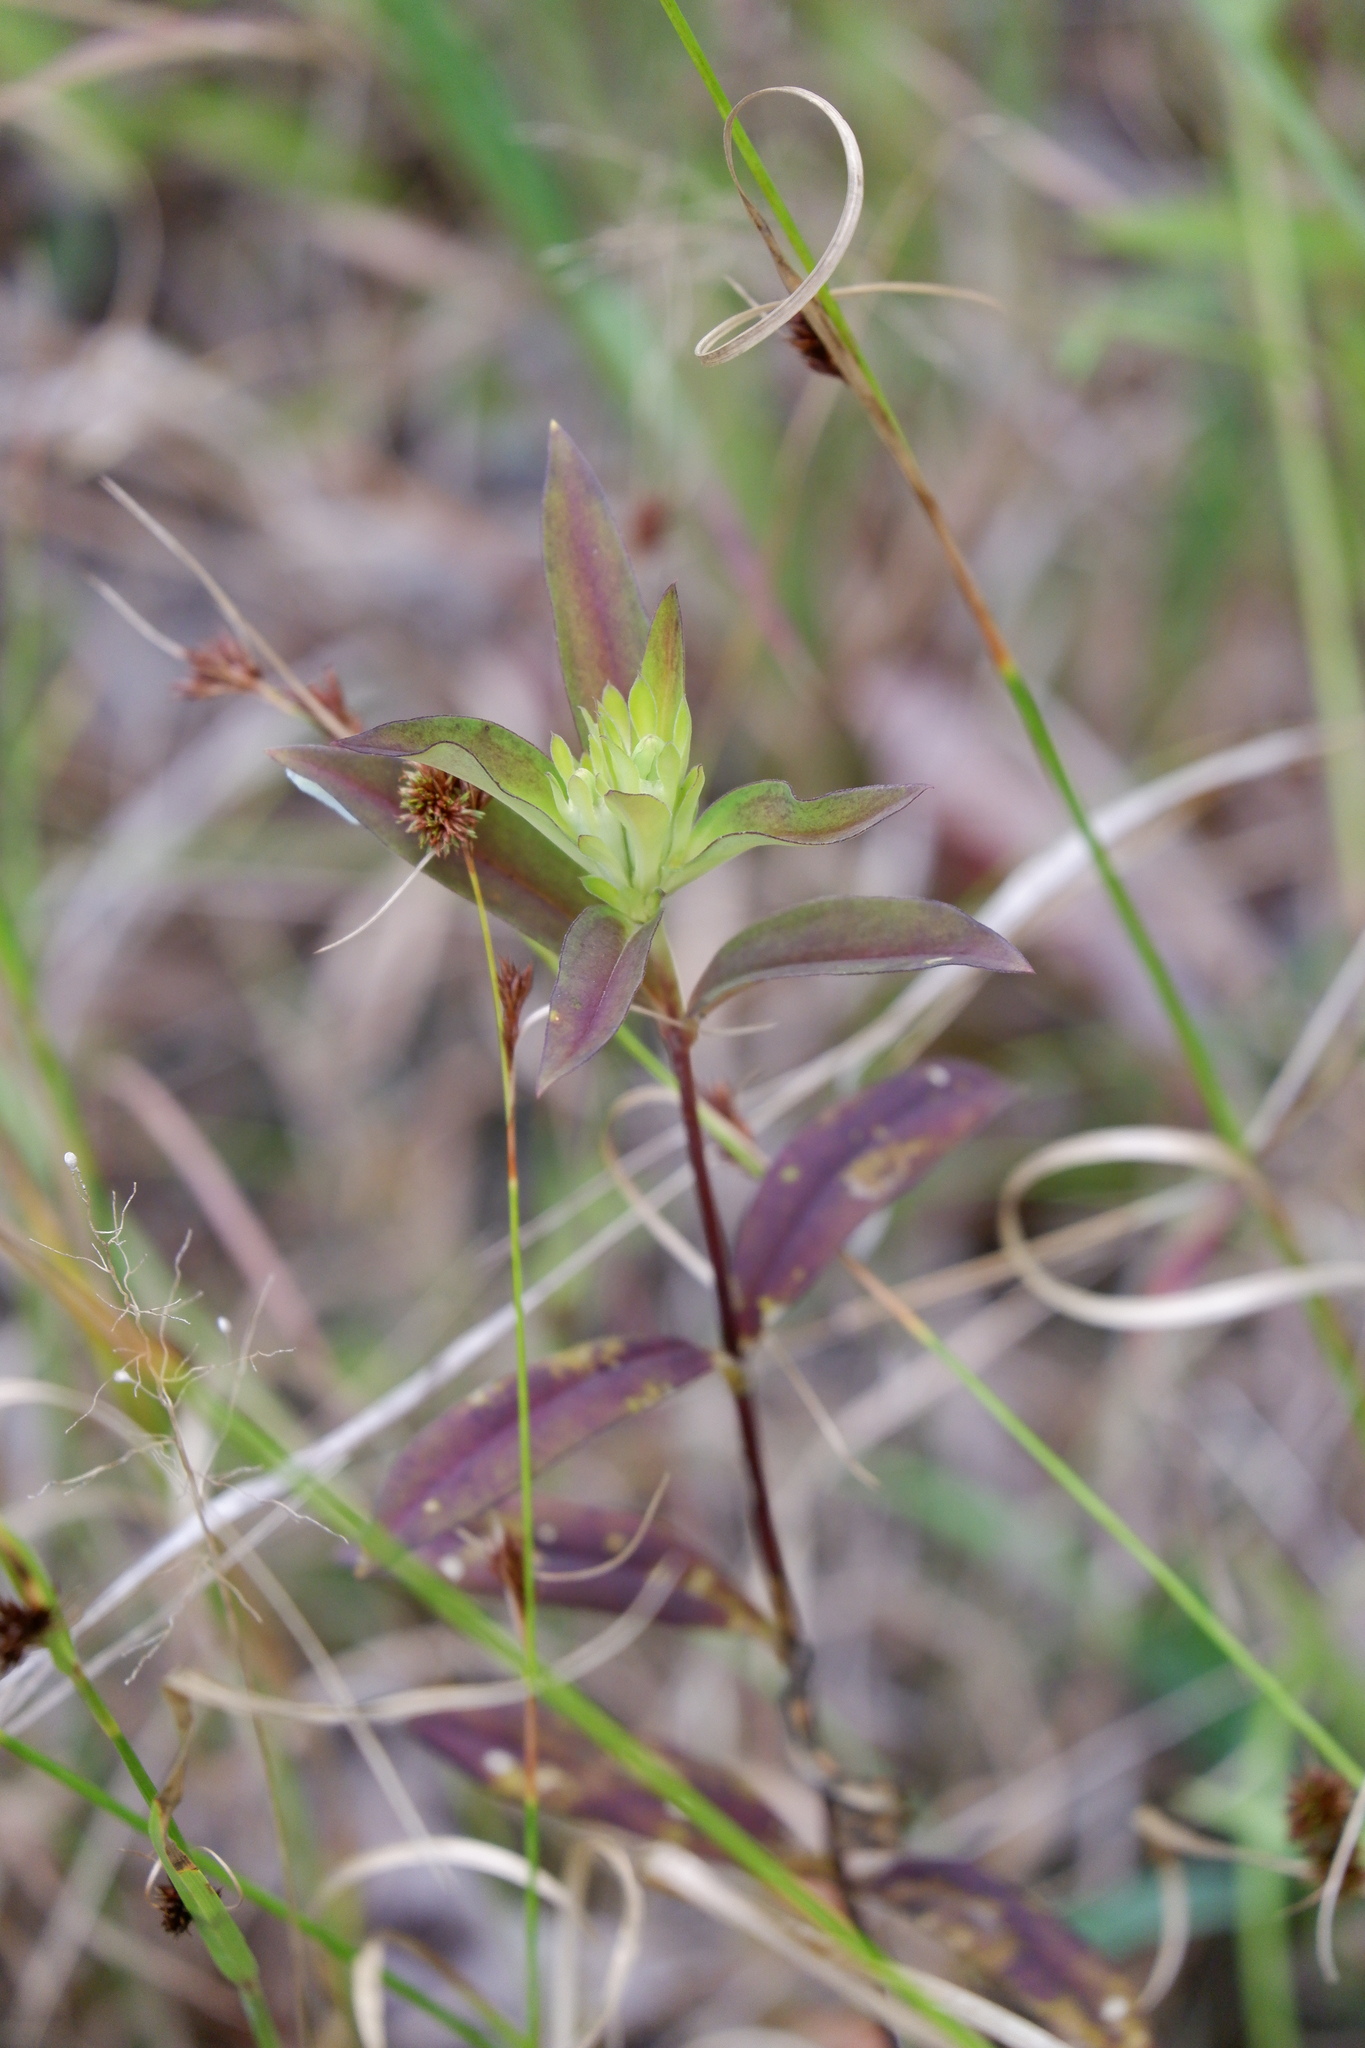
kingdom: Plantae
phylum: Tracheophyta
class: Magnoliopsida
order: Gentianales
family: Gentianaceae
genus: Gentiana
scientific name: Gentiana saponaria
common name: Soapwort gentian
